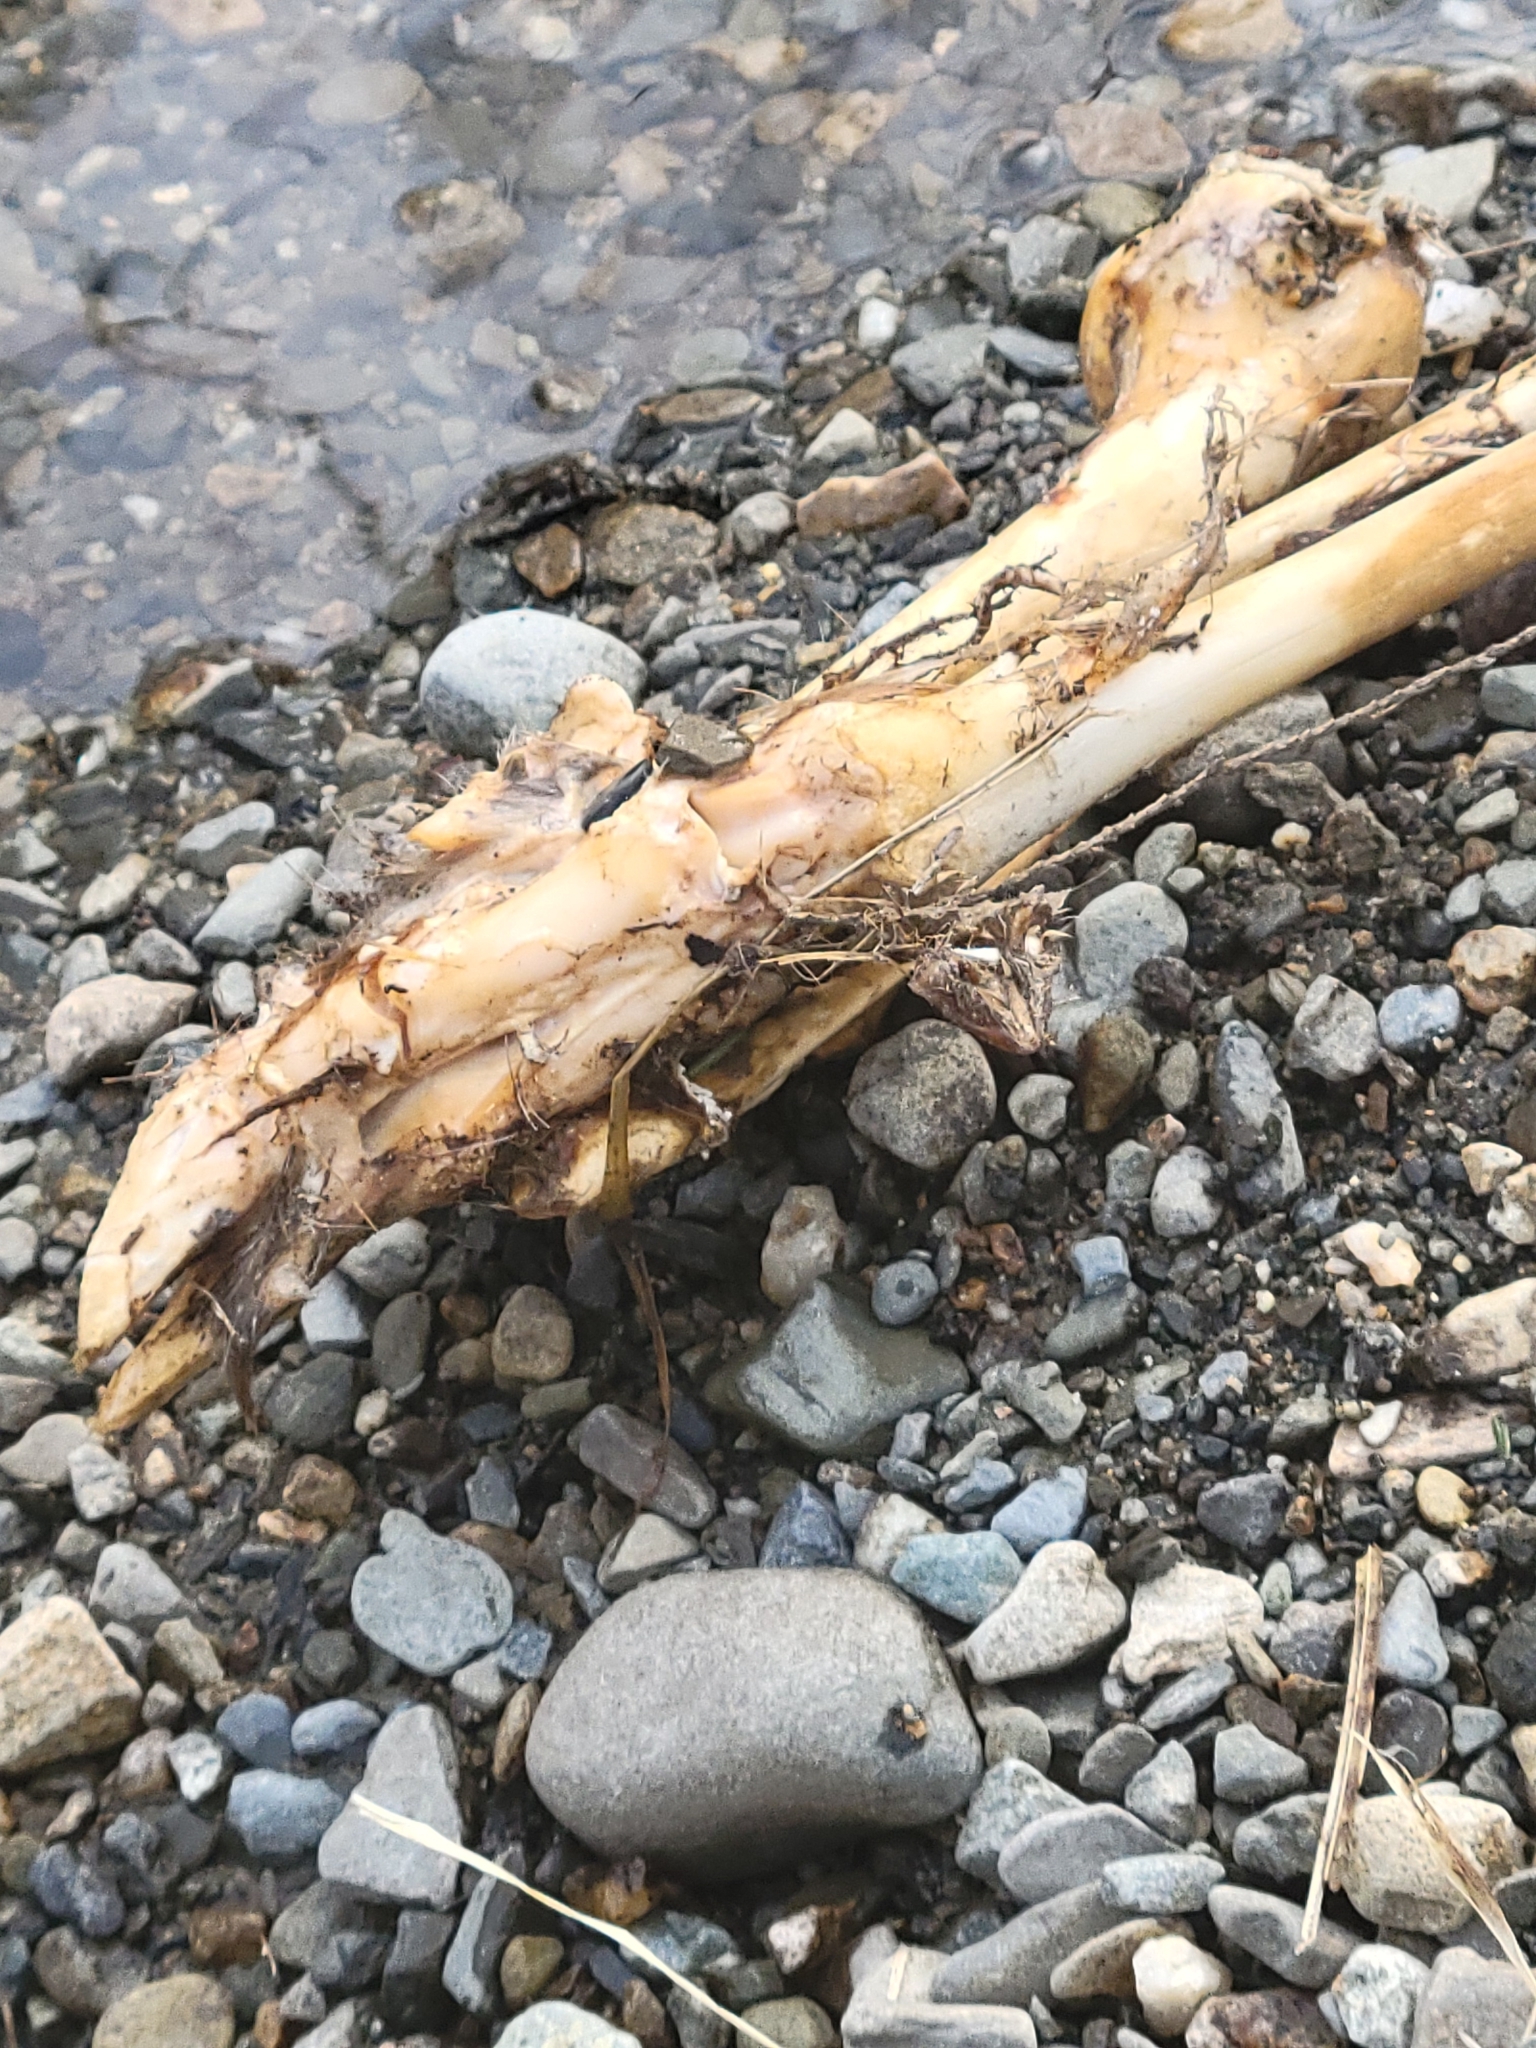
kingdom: Animalia
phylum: Chordata
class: Mammalia
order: Artiodactyla
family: Cervidae
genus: Odocoileus
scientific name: Odocoileus virginianus
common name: White-tailed deer
